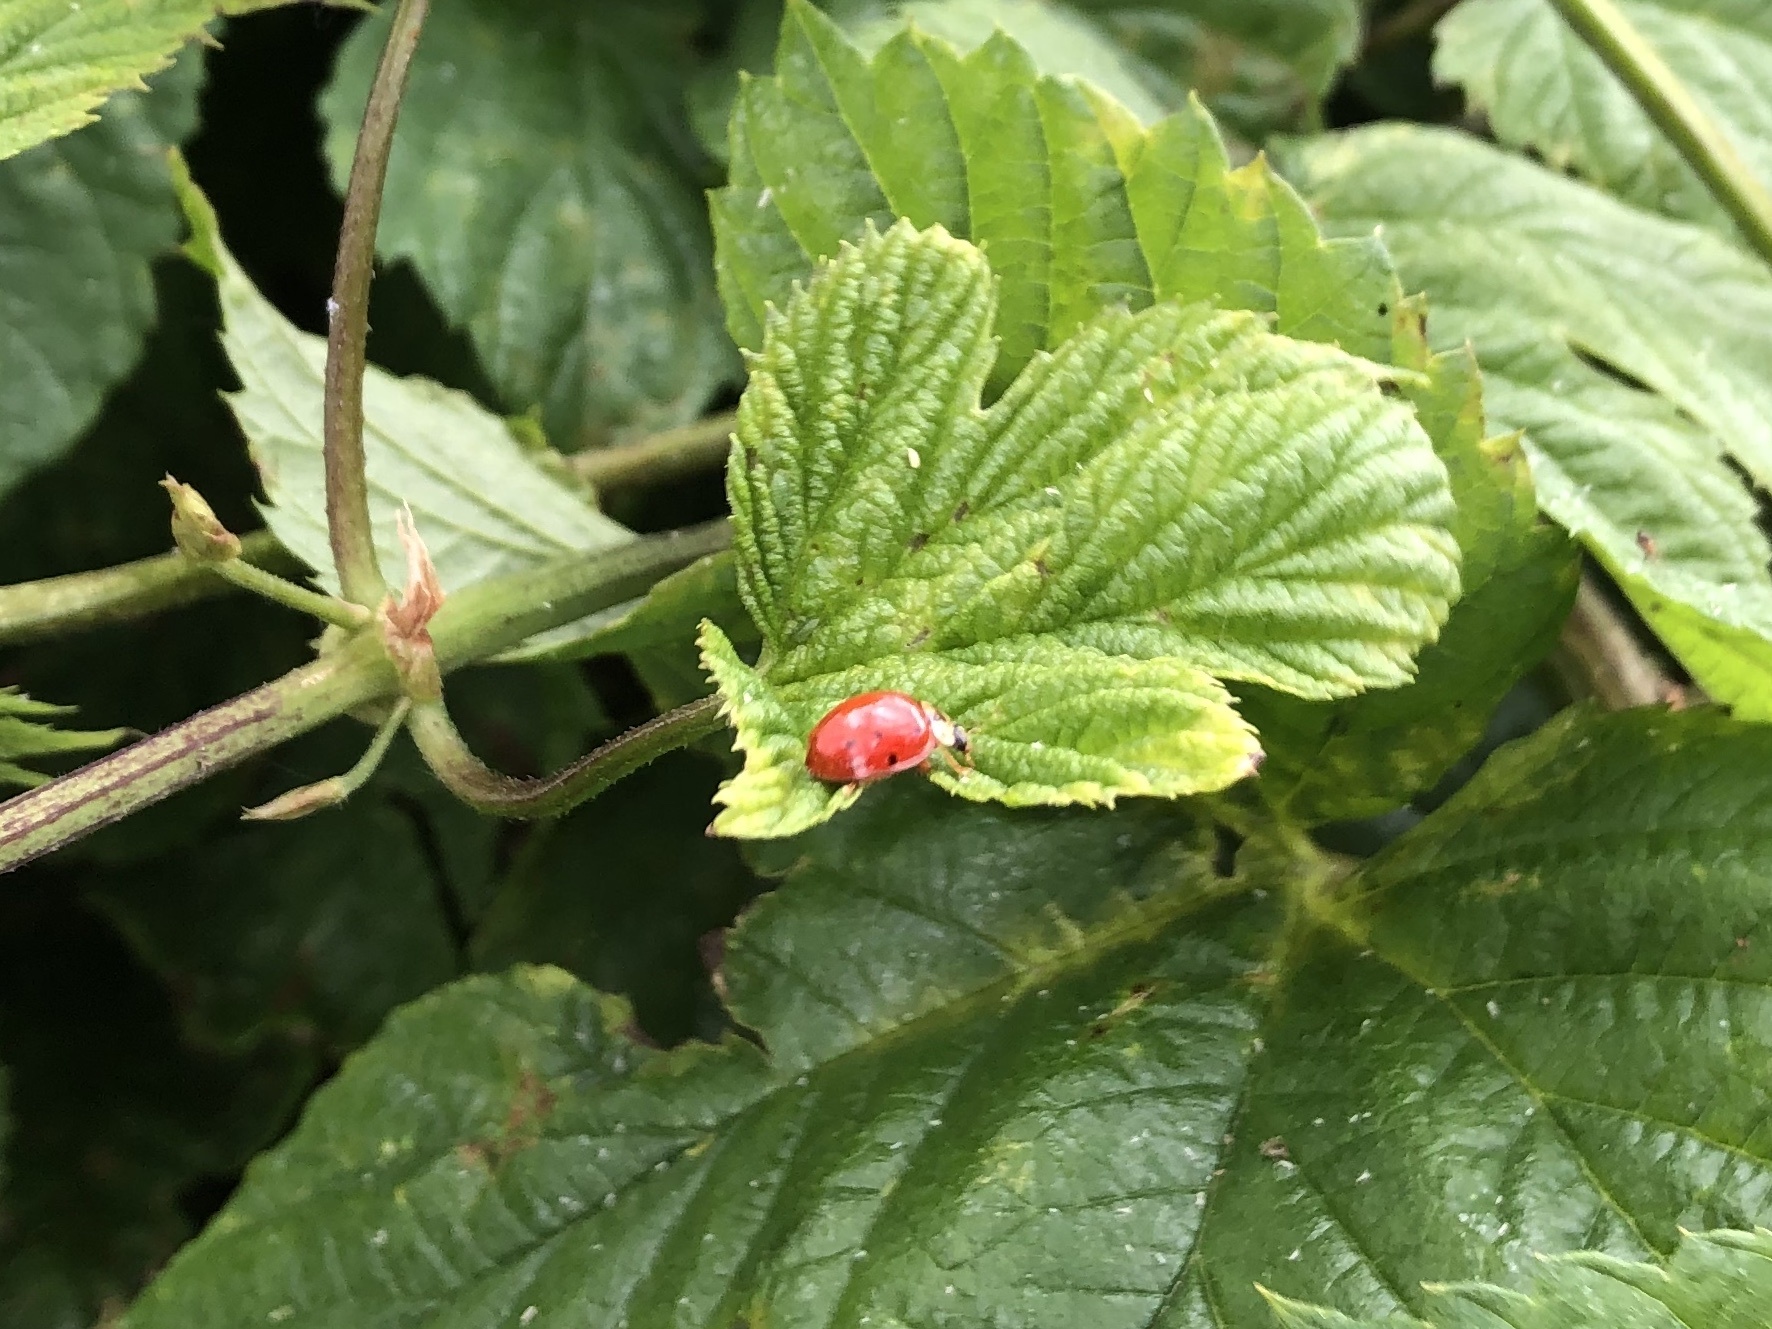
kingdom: Animalia
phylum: Arthropoda
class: Insecta
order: Coleoptera
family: Coccinellidae
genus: Harmonia
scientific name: Harmonia axyridis
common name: Harlequin ladybird
